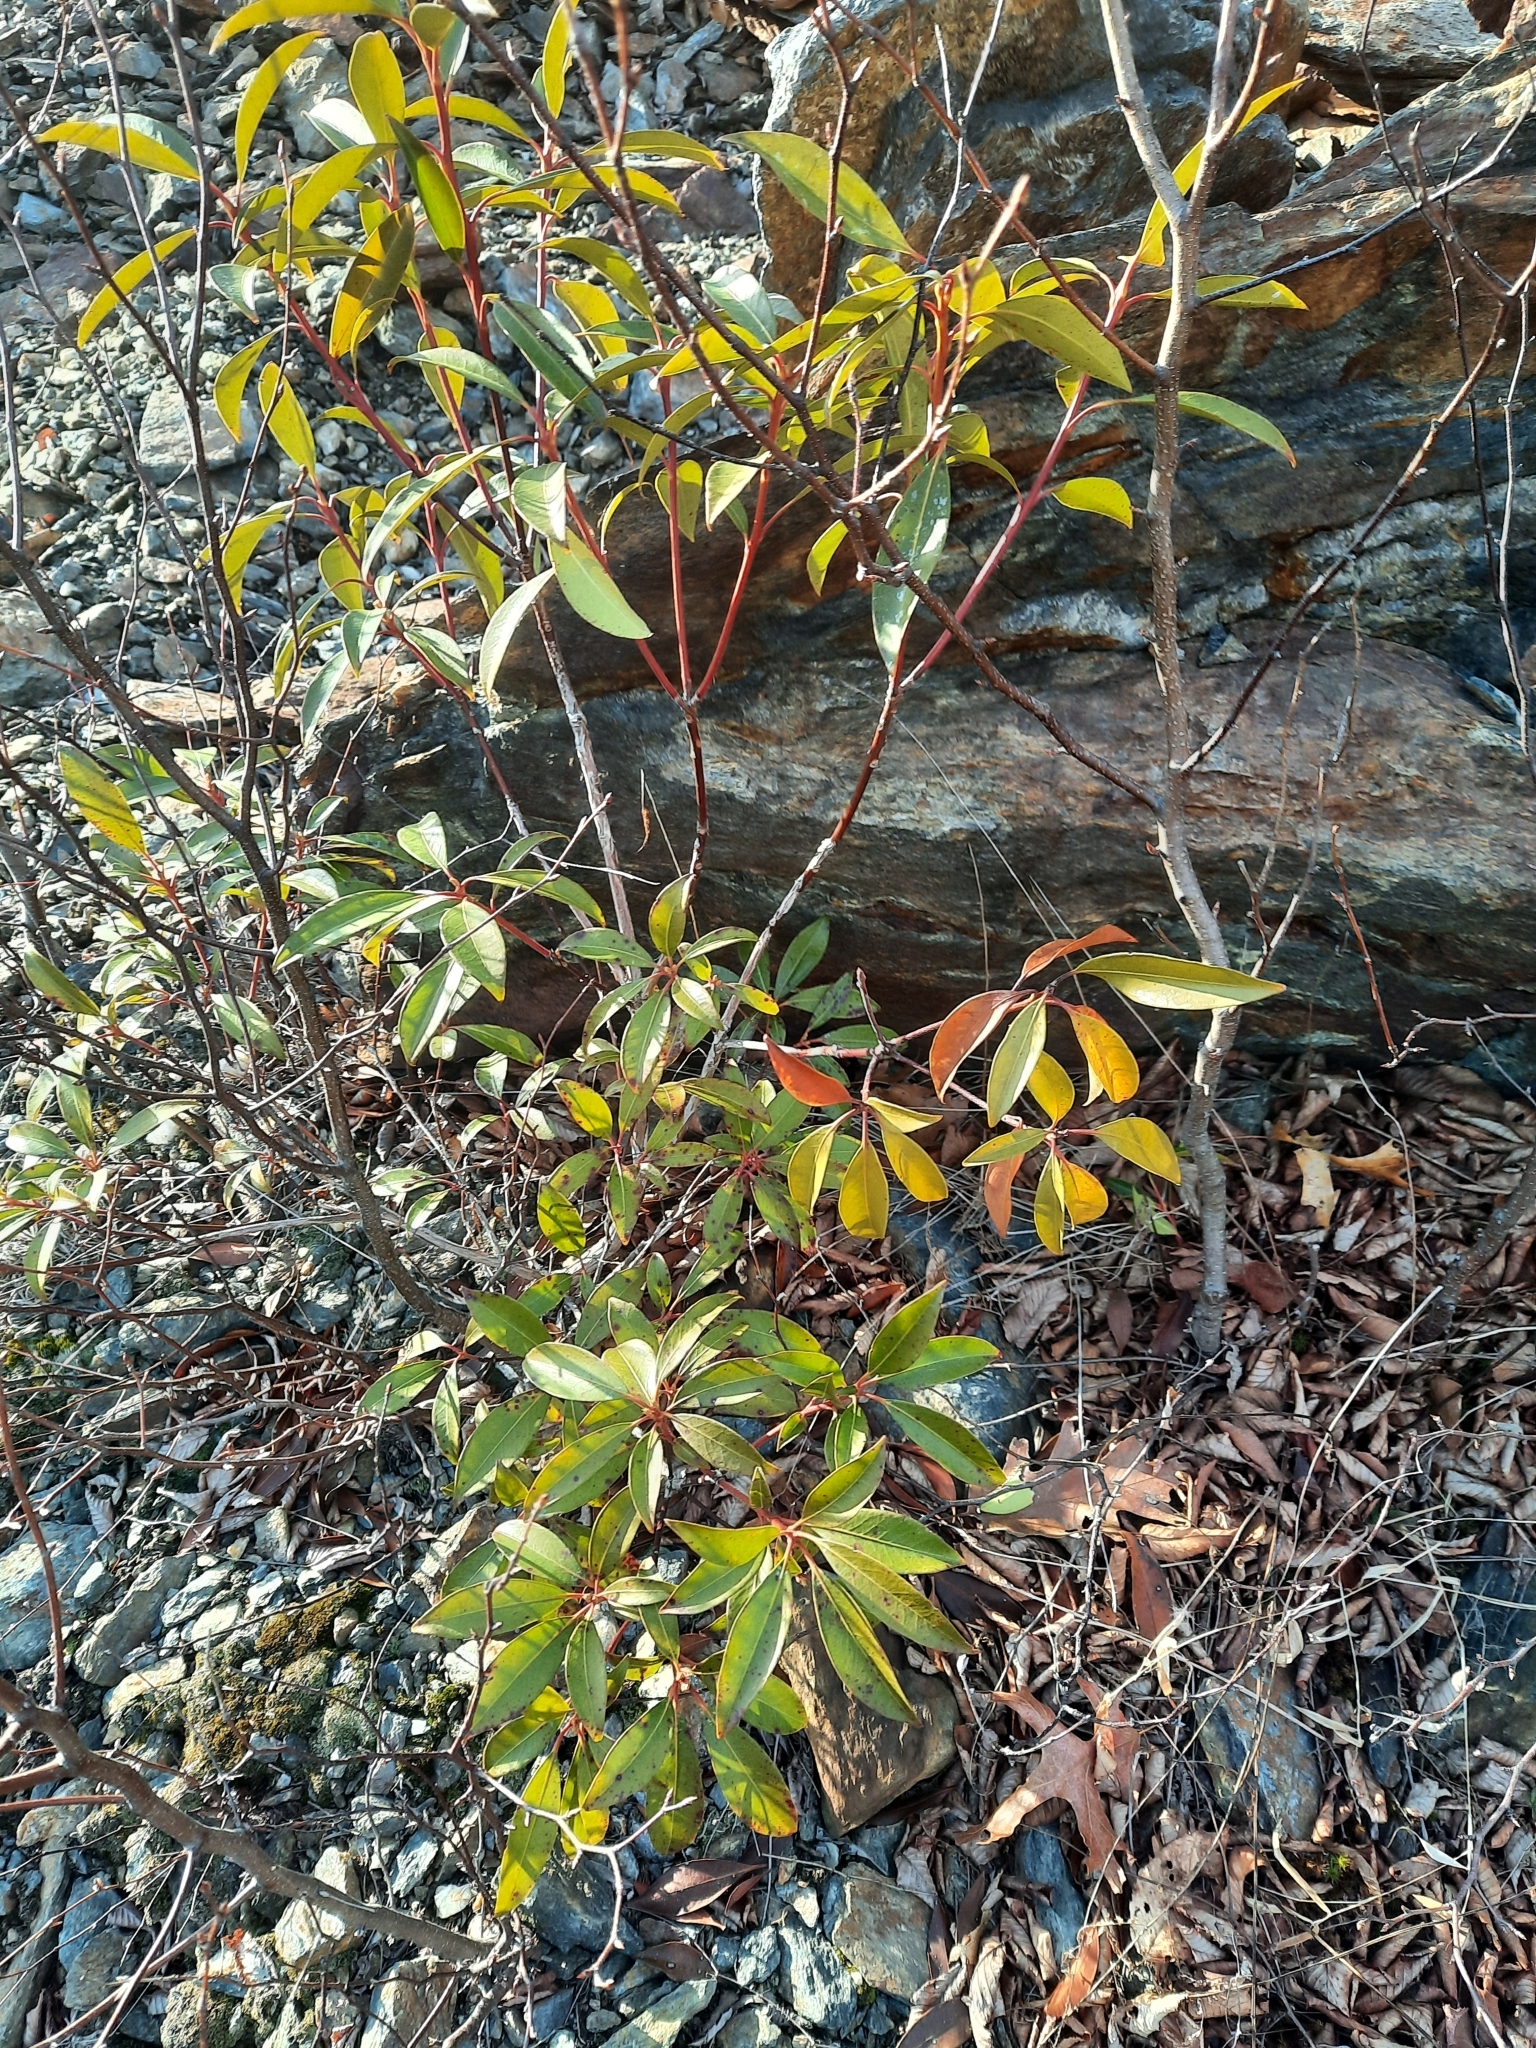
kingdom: Plantae
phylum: Tracheophyta
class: Magnoliopsida
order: Ericales
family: Ericaceae
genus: Kalmia
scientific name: Kalmia latifolia
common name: Mountain-laurel
